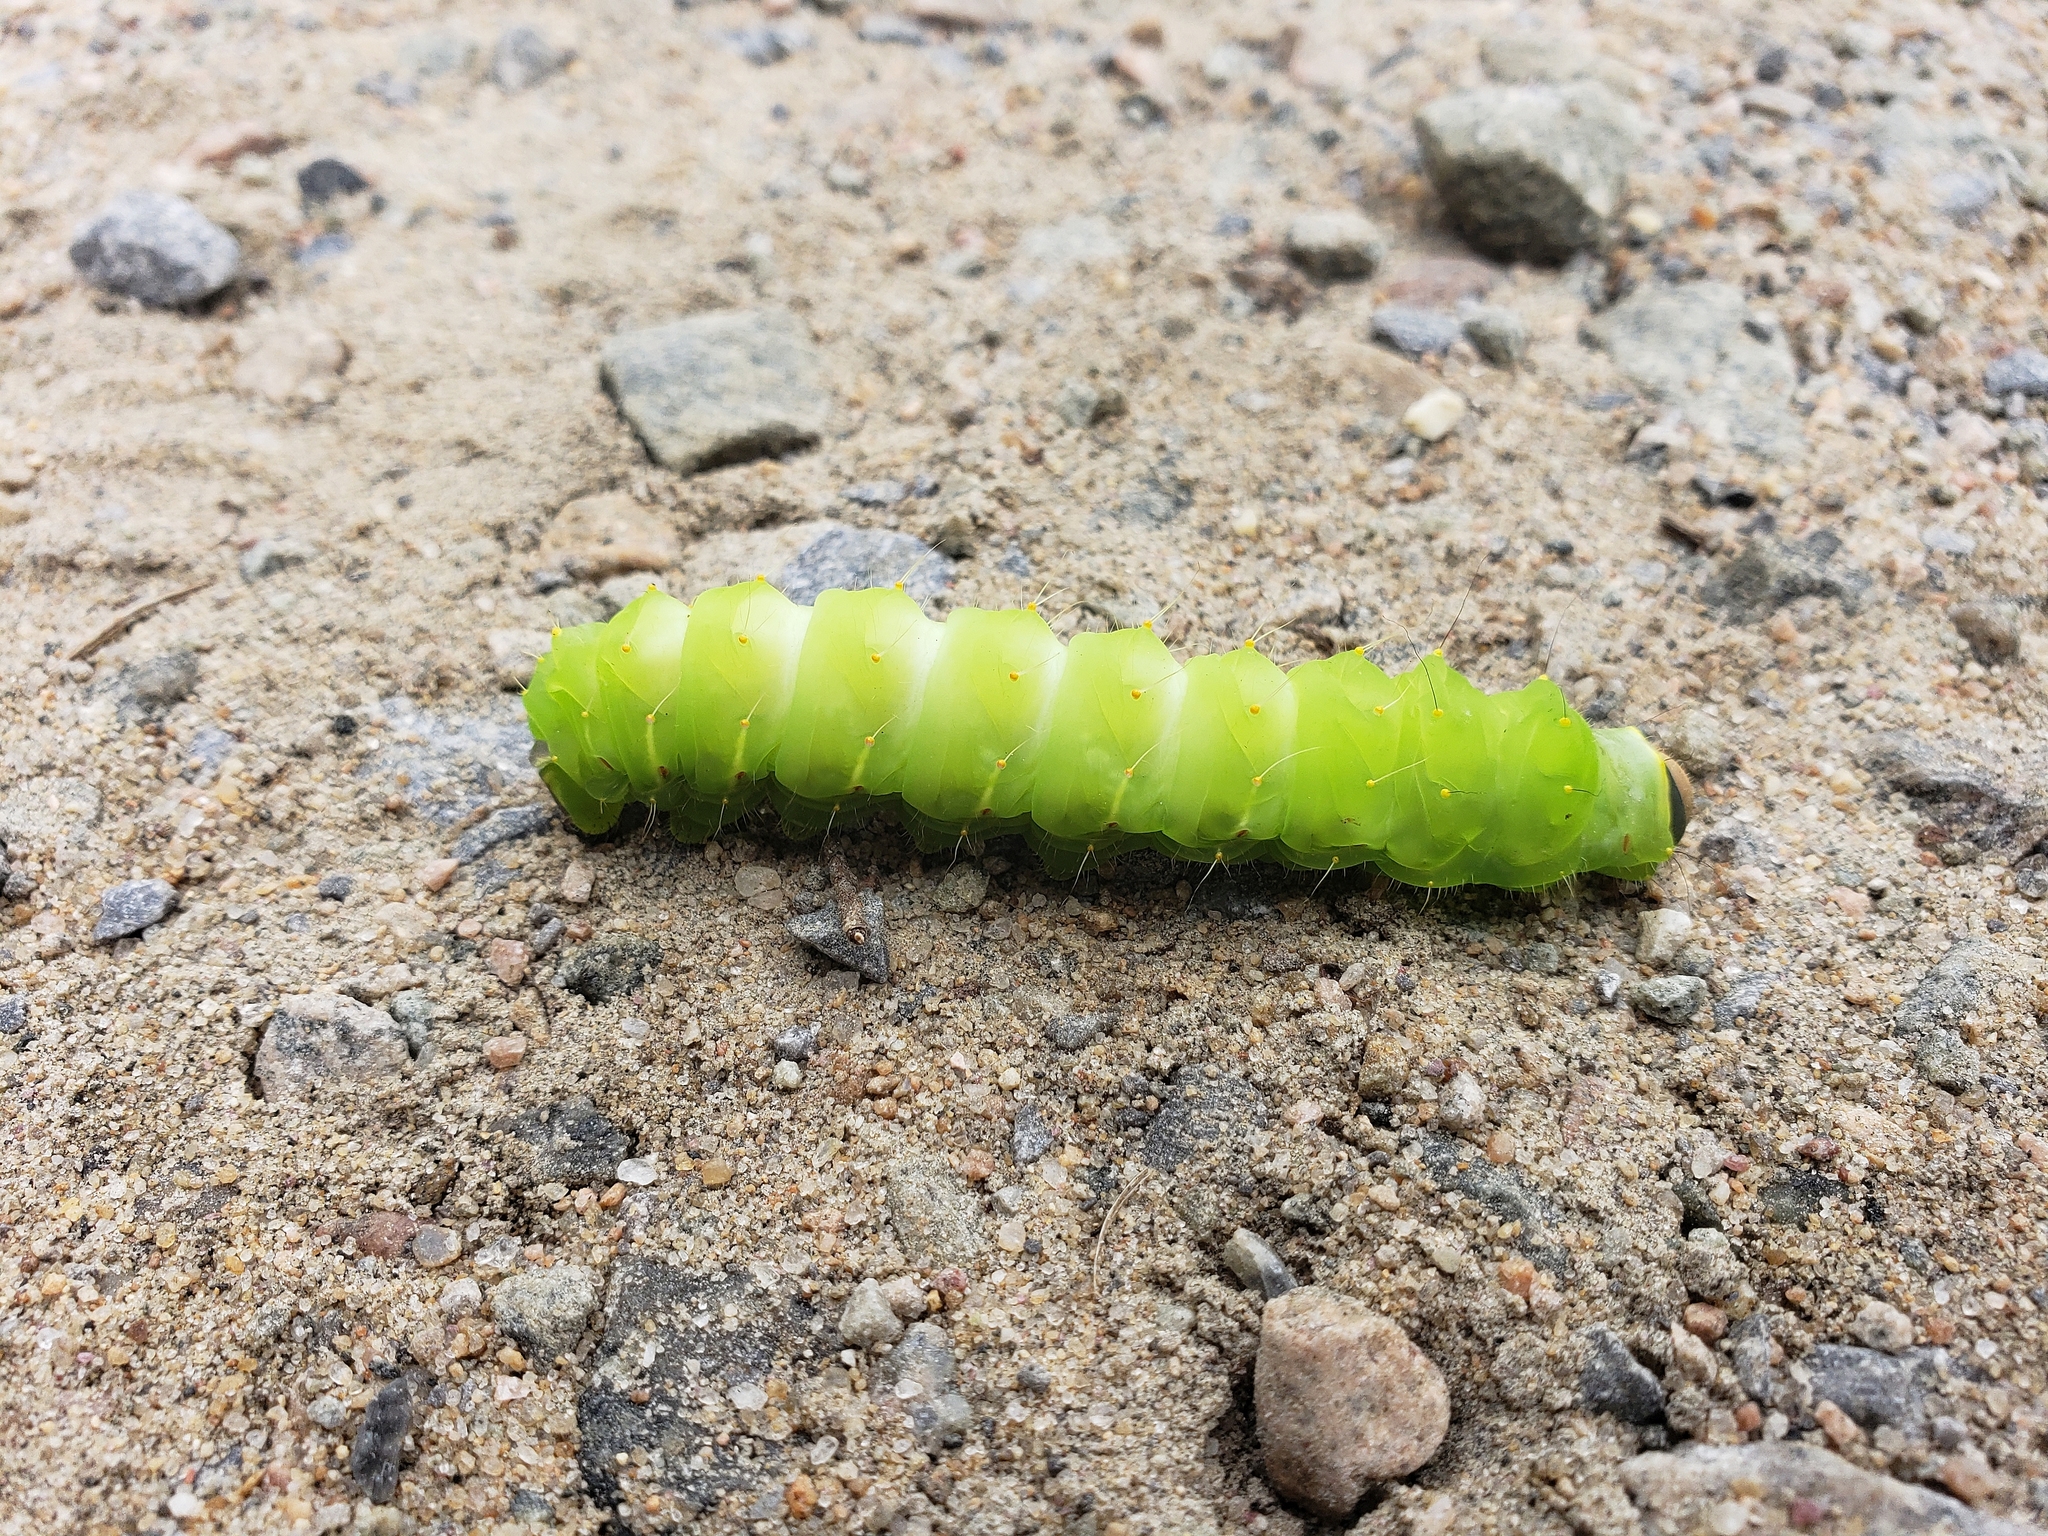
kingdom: Animalia
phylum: Arthropoda
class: Insecta
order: Lepidoptera
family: Saturniidae
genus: Antheraea
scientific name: Antheraea polyphemus
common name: Polyphemus moth
